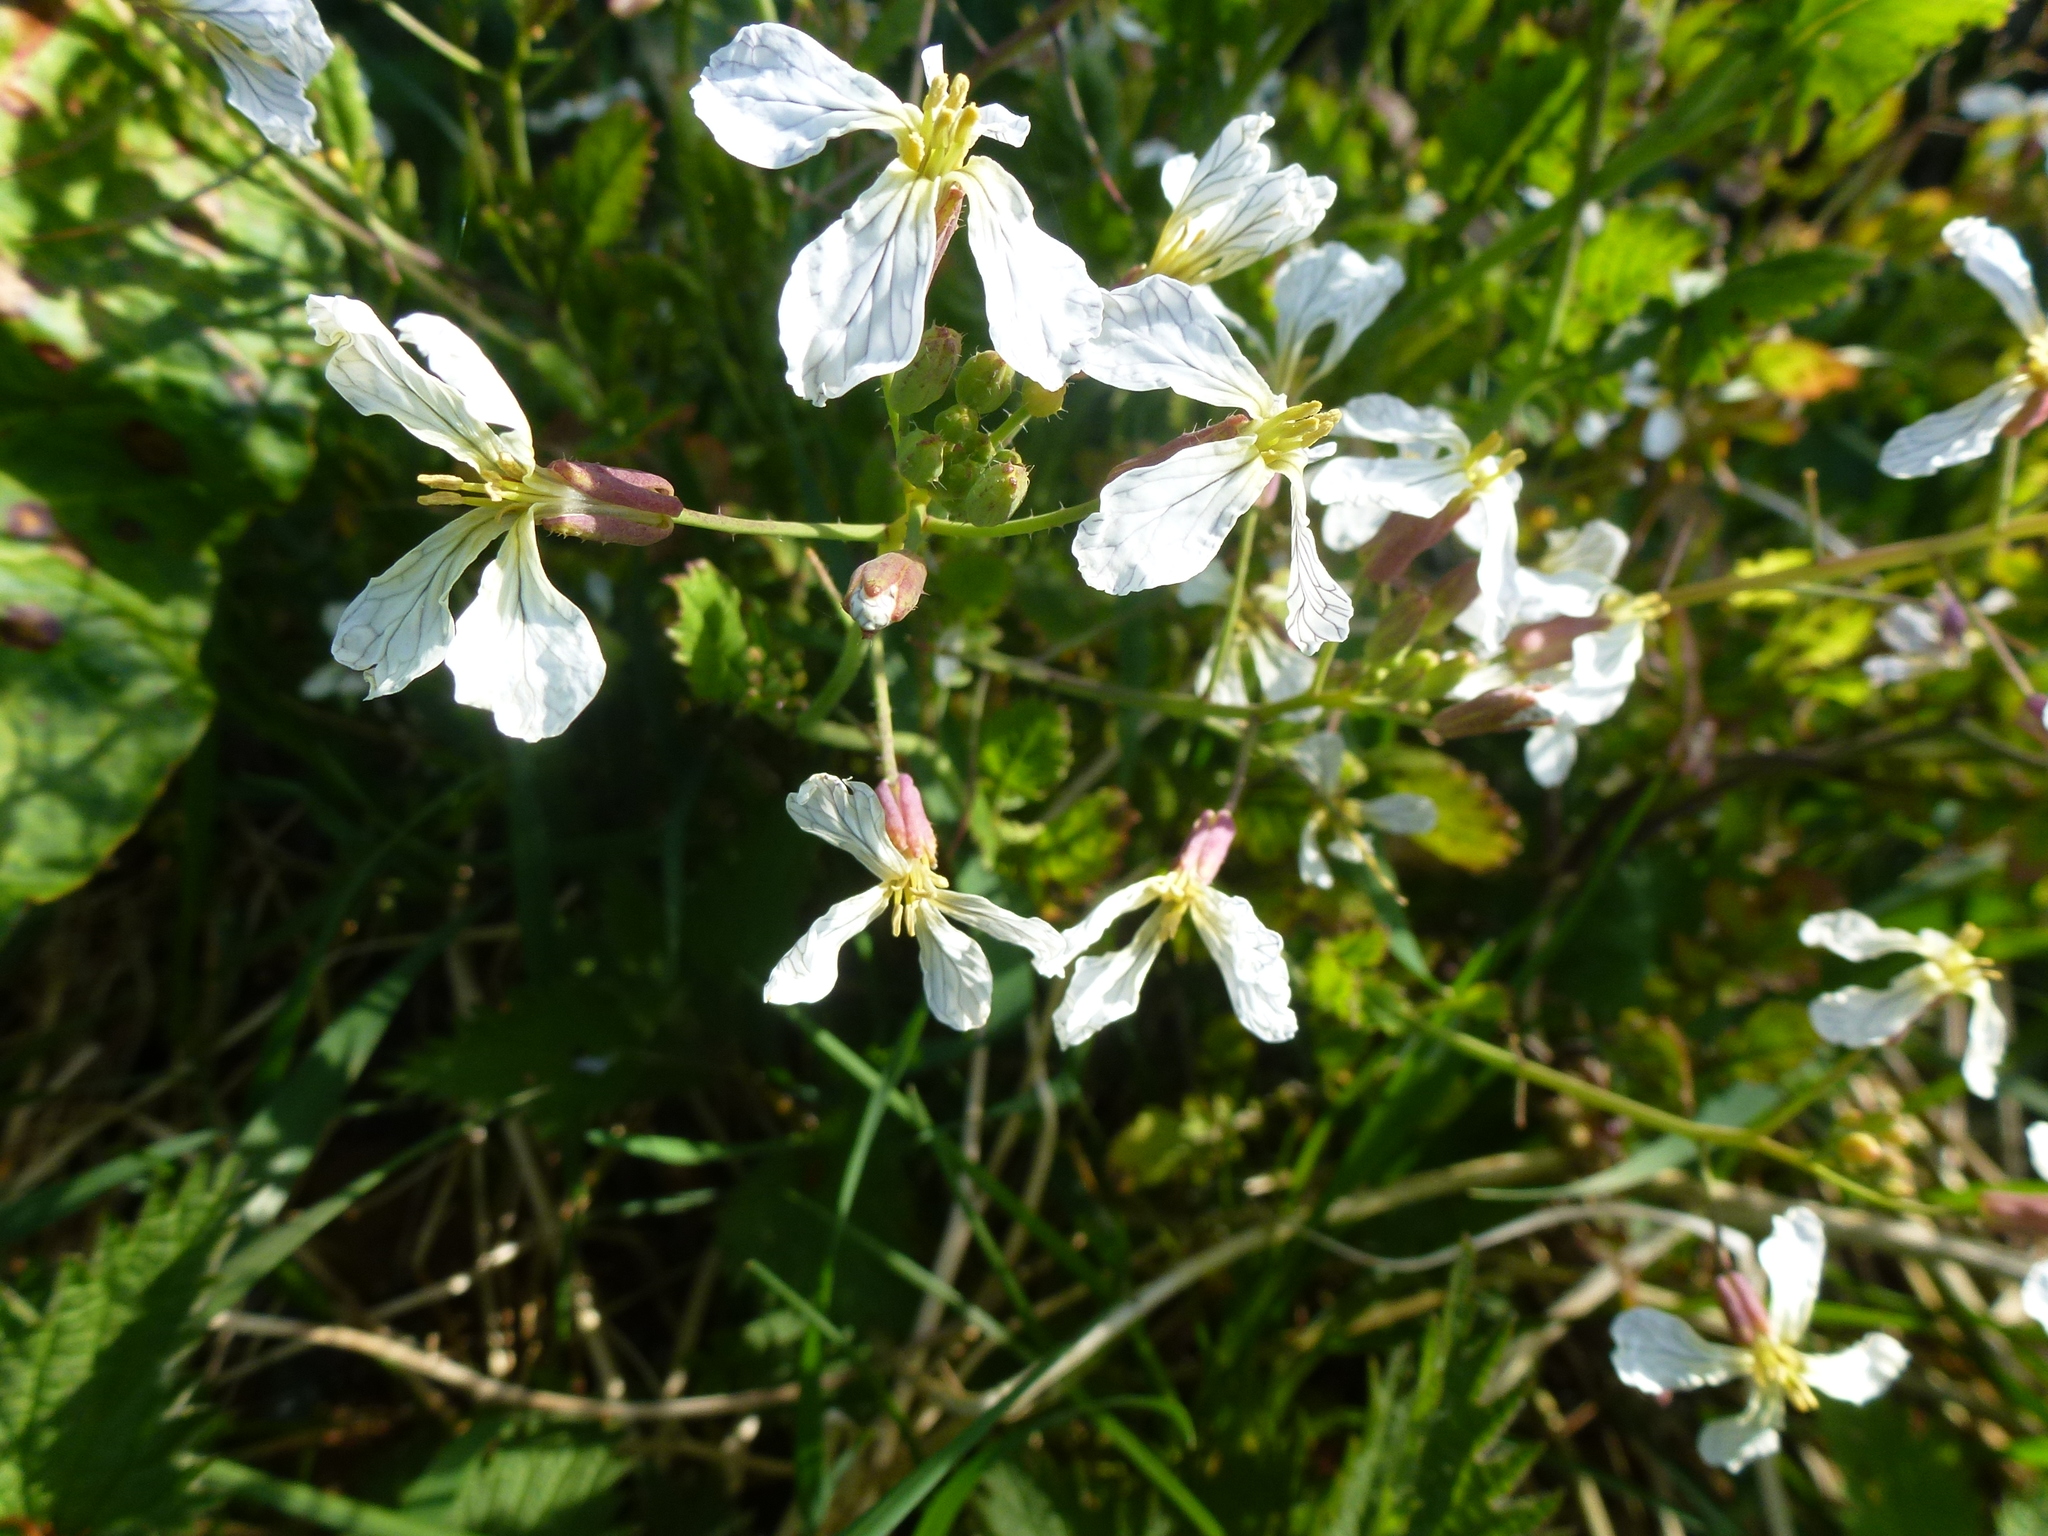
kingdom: Plantae
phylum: Tracheophyta
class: Magnoliopsida
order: Brassicales
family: Brassicaceae
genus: Raphanus
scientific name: Raphanus raphanistrum
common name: Wild radish
